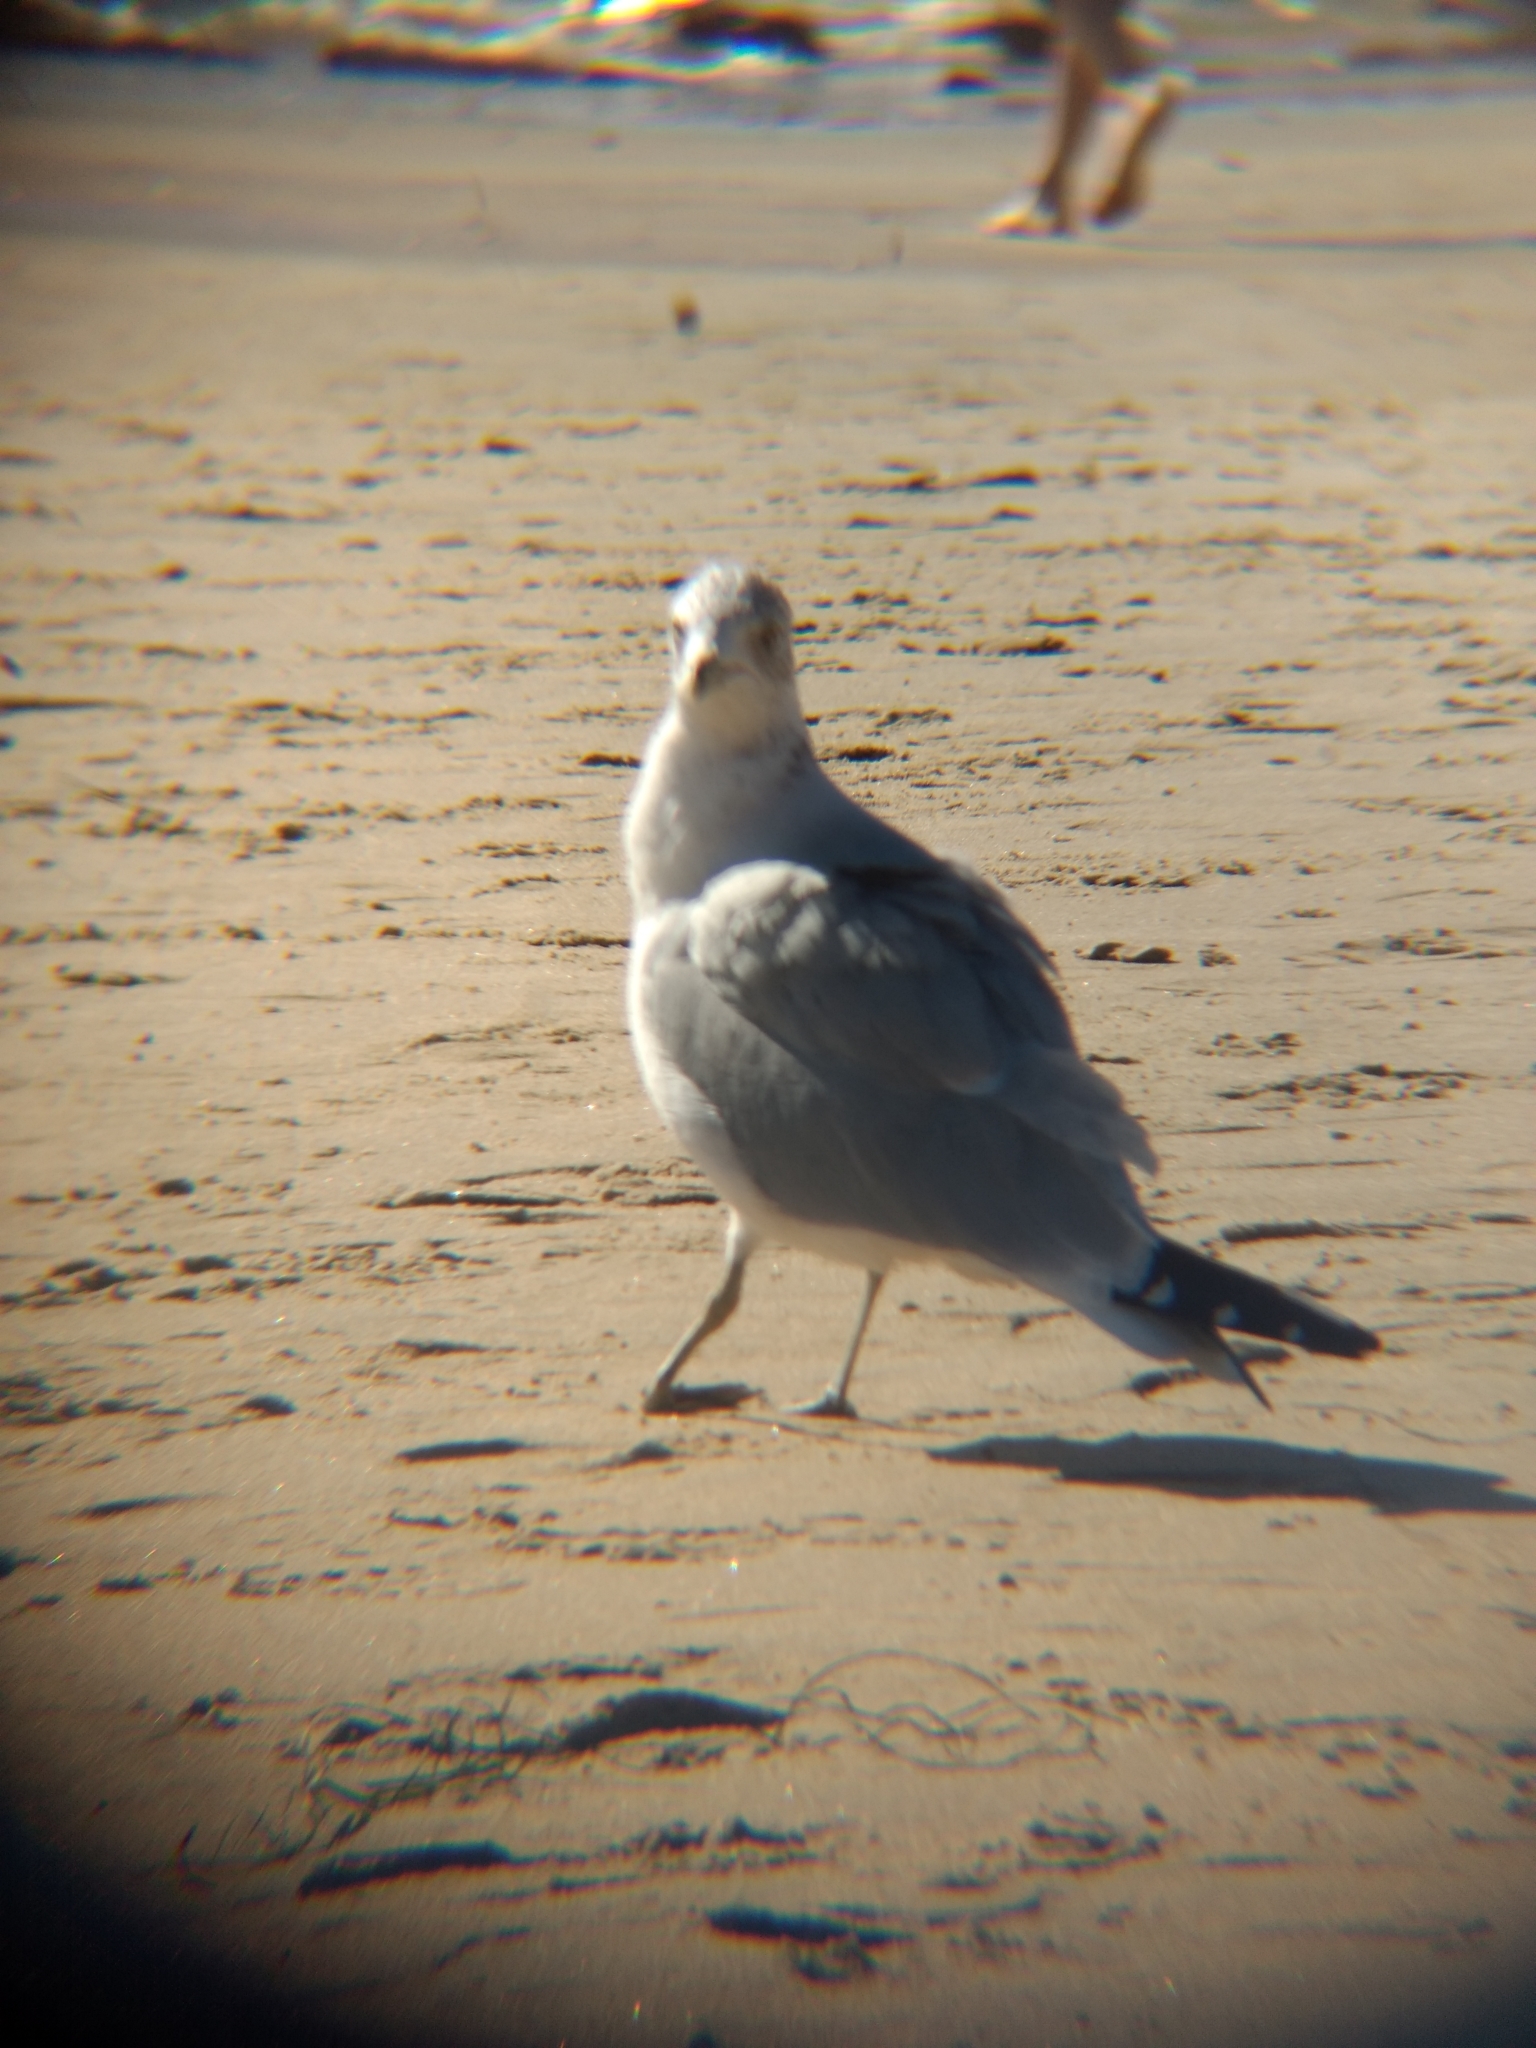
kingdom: Animalia
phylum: Chordata
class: Aves
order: Charadriiformes
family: Laridae
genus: Larus
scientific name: Larus delawarensis
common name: Ring-billed gull
